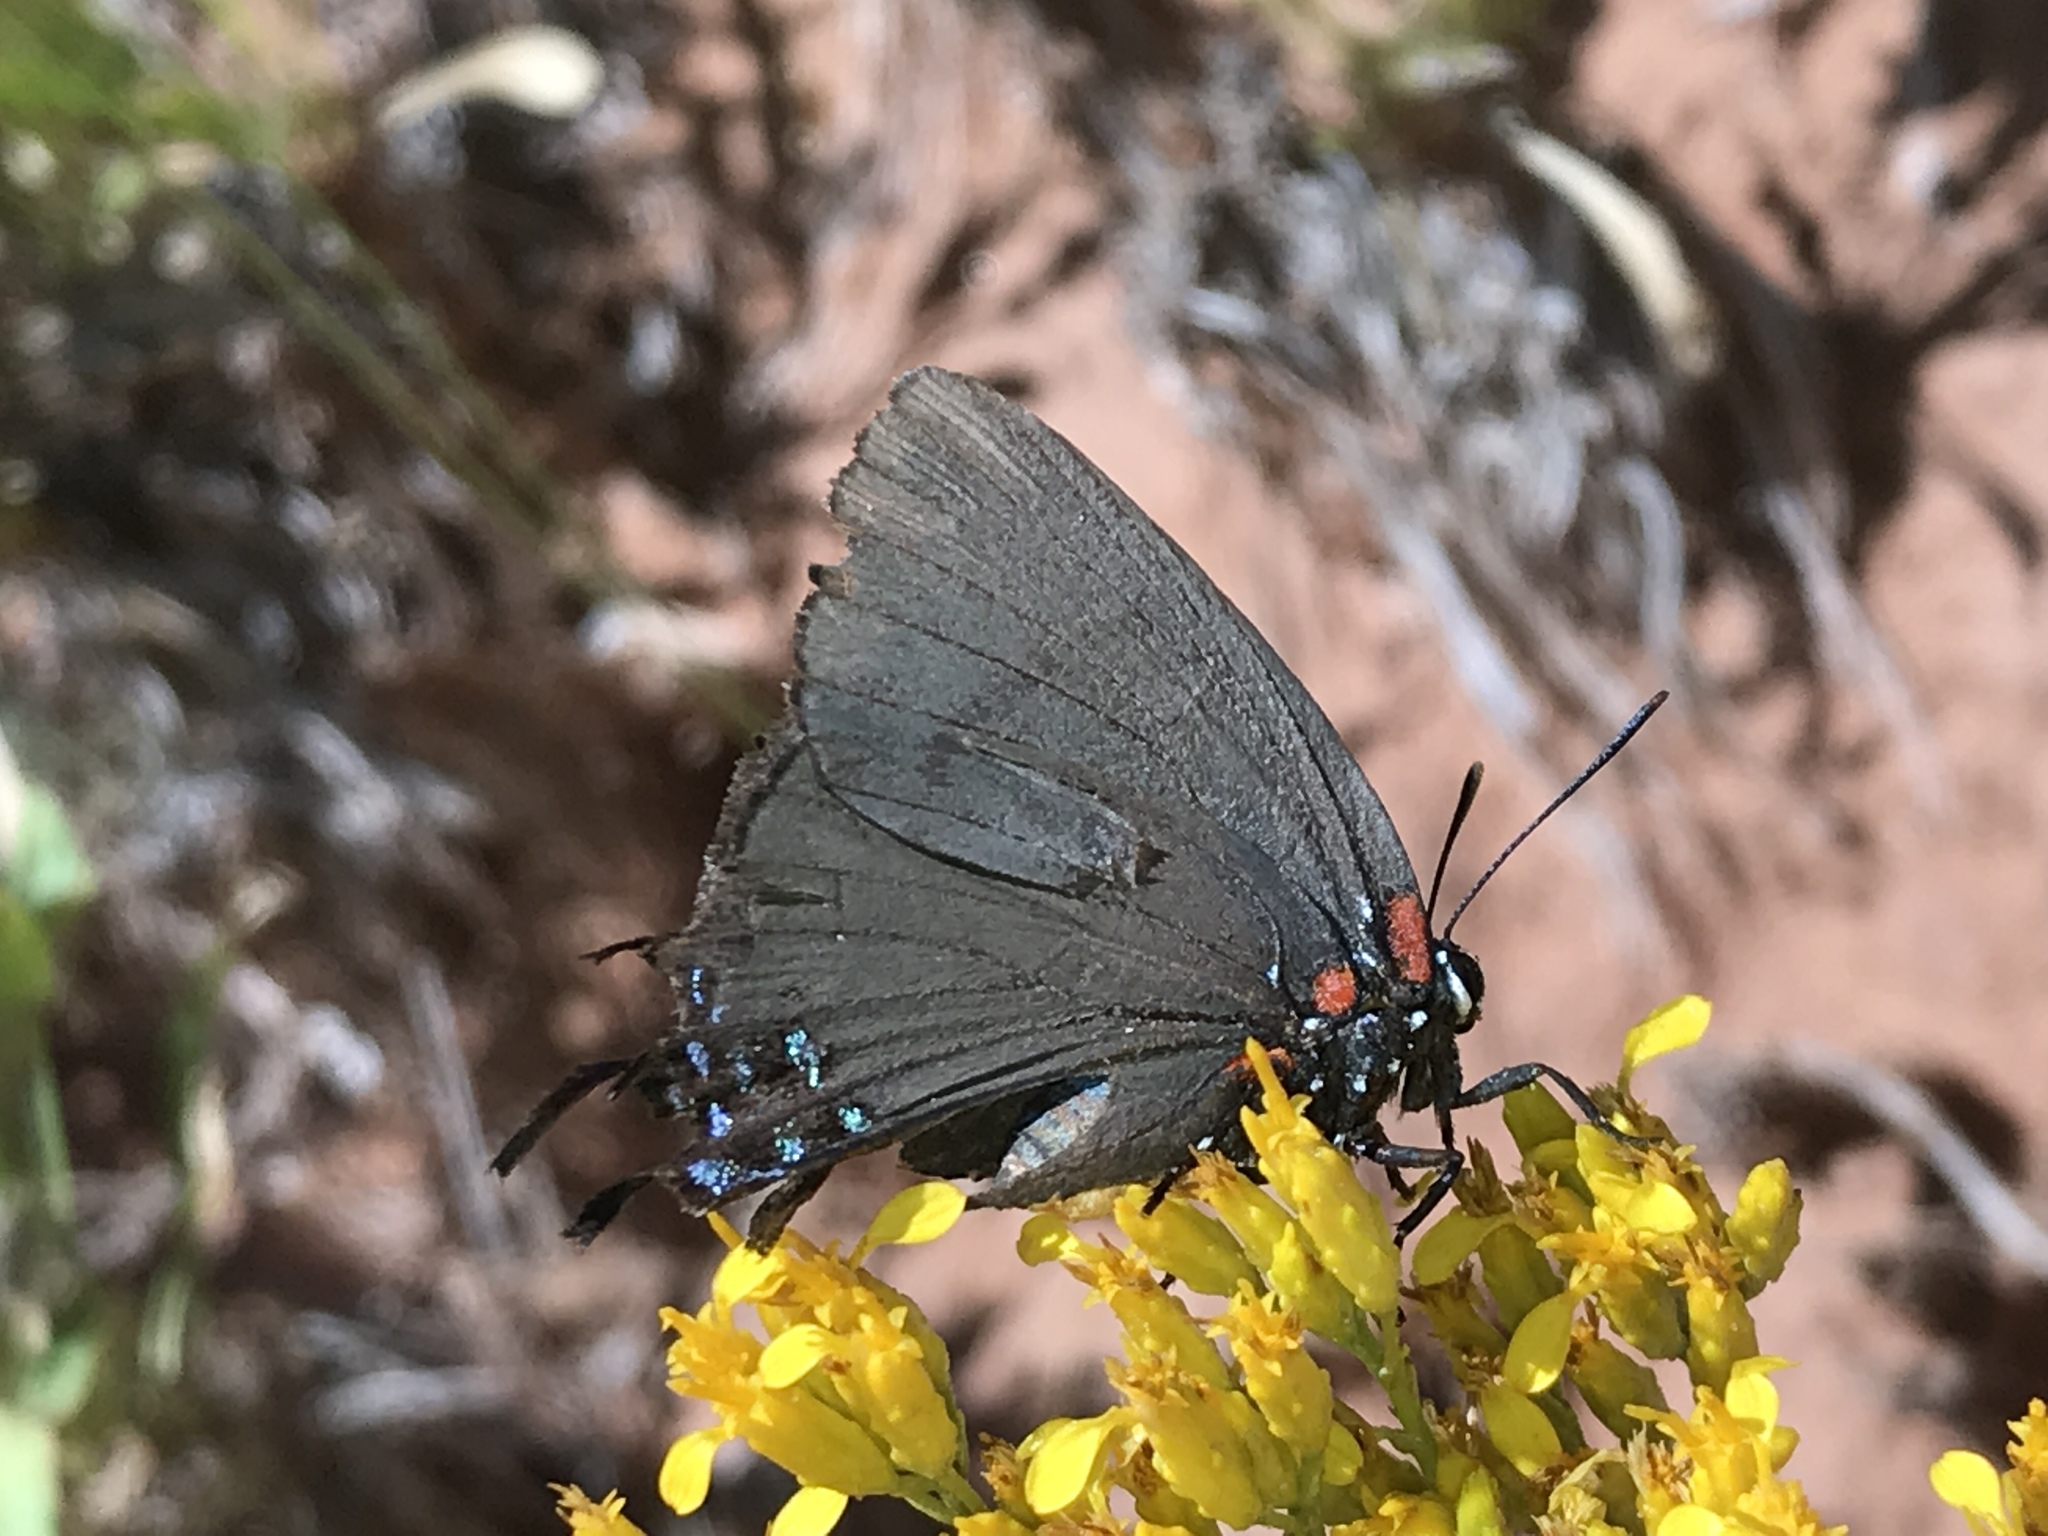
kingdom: Animalia
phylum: Arthropoda
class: Insecta
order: Lepidoptera
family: Lycaenidae
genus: Atlides
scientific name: Atlides halesus
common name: Great purple hairstreak
